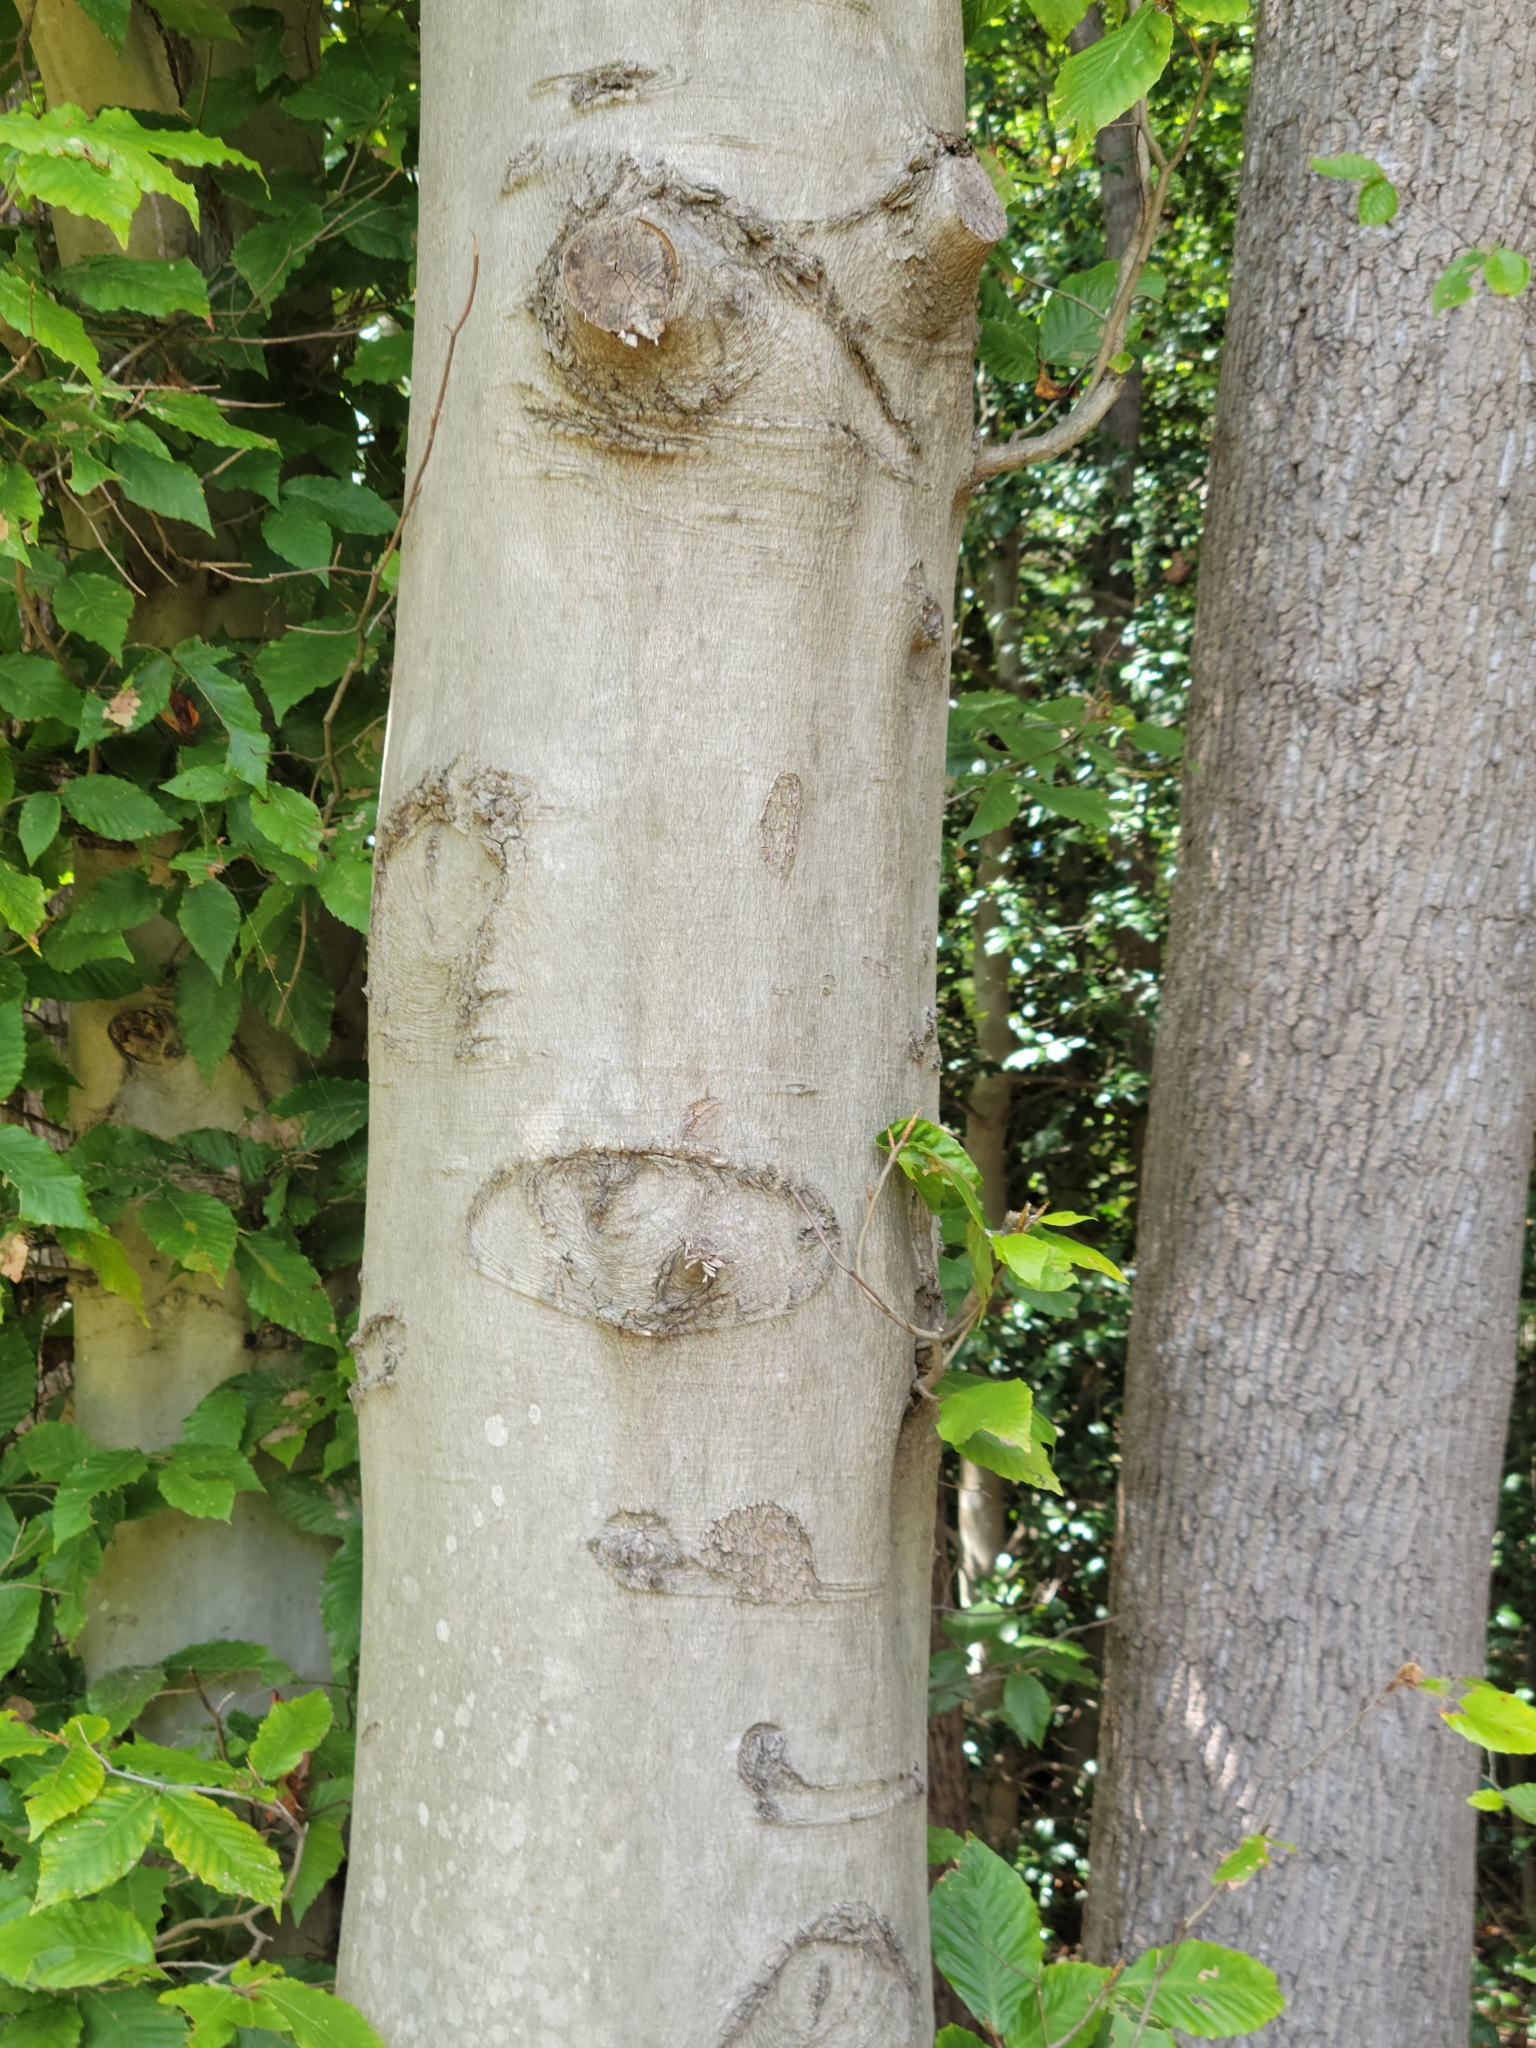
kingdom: Plantae
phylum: Tracheophyta
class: Magnoliopsida
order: Fagales
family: Fagaceae
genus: Fagus
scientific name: Fagus grandifolia
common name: American beech
